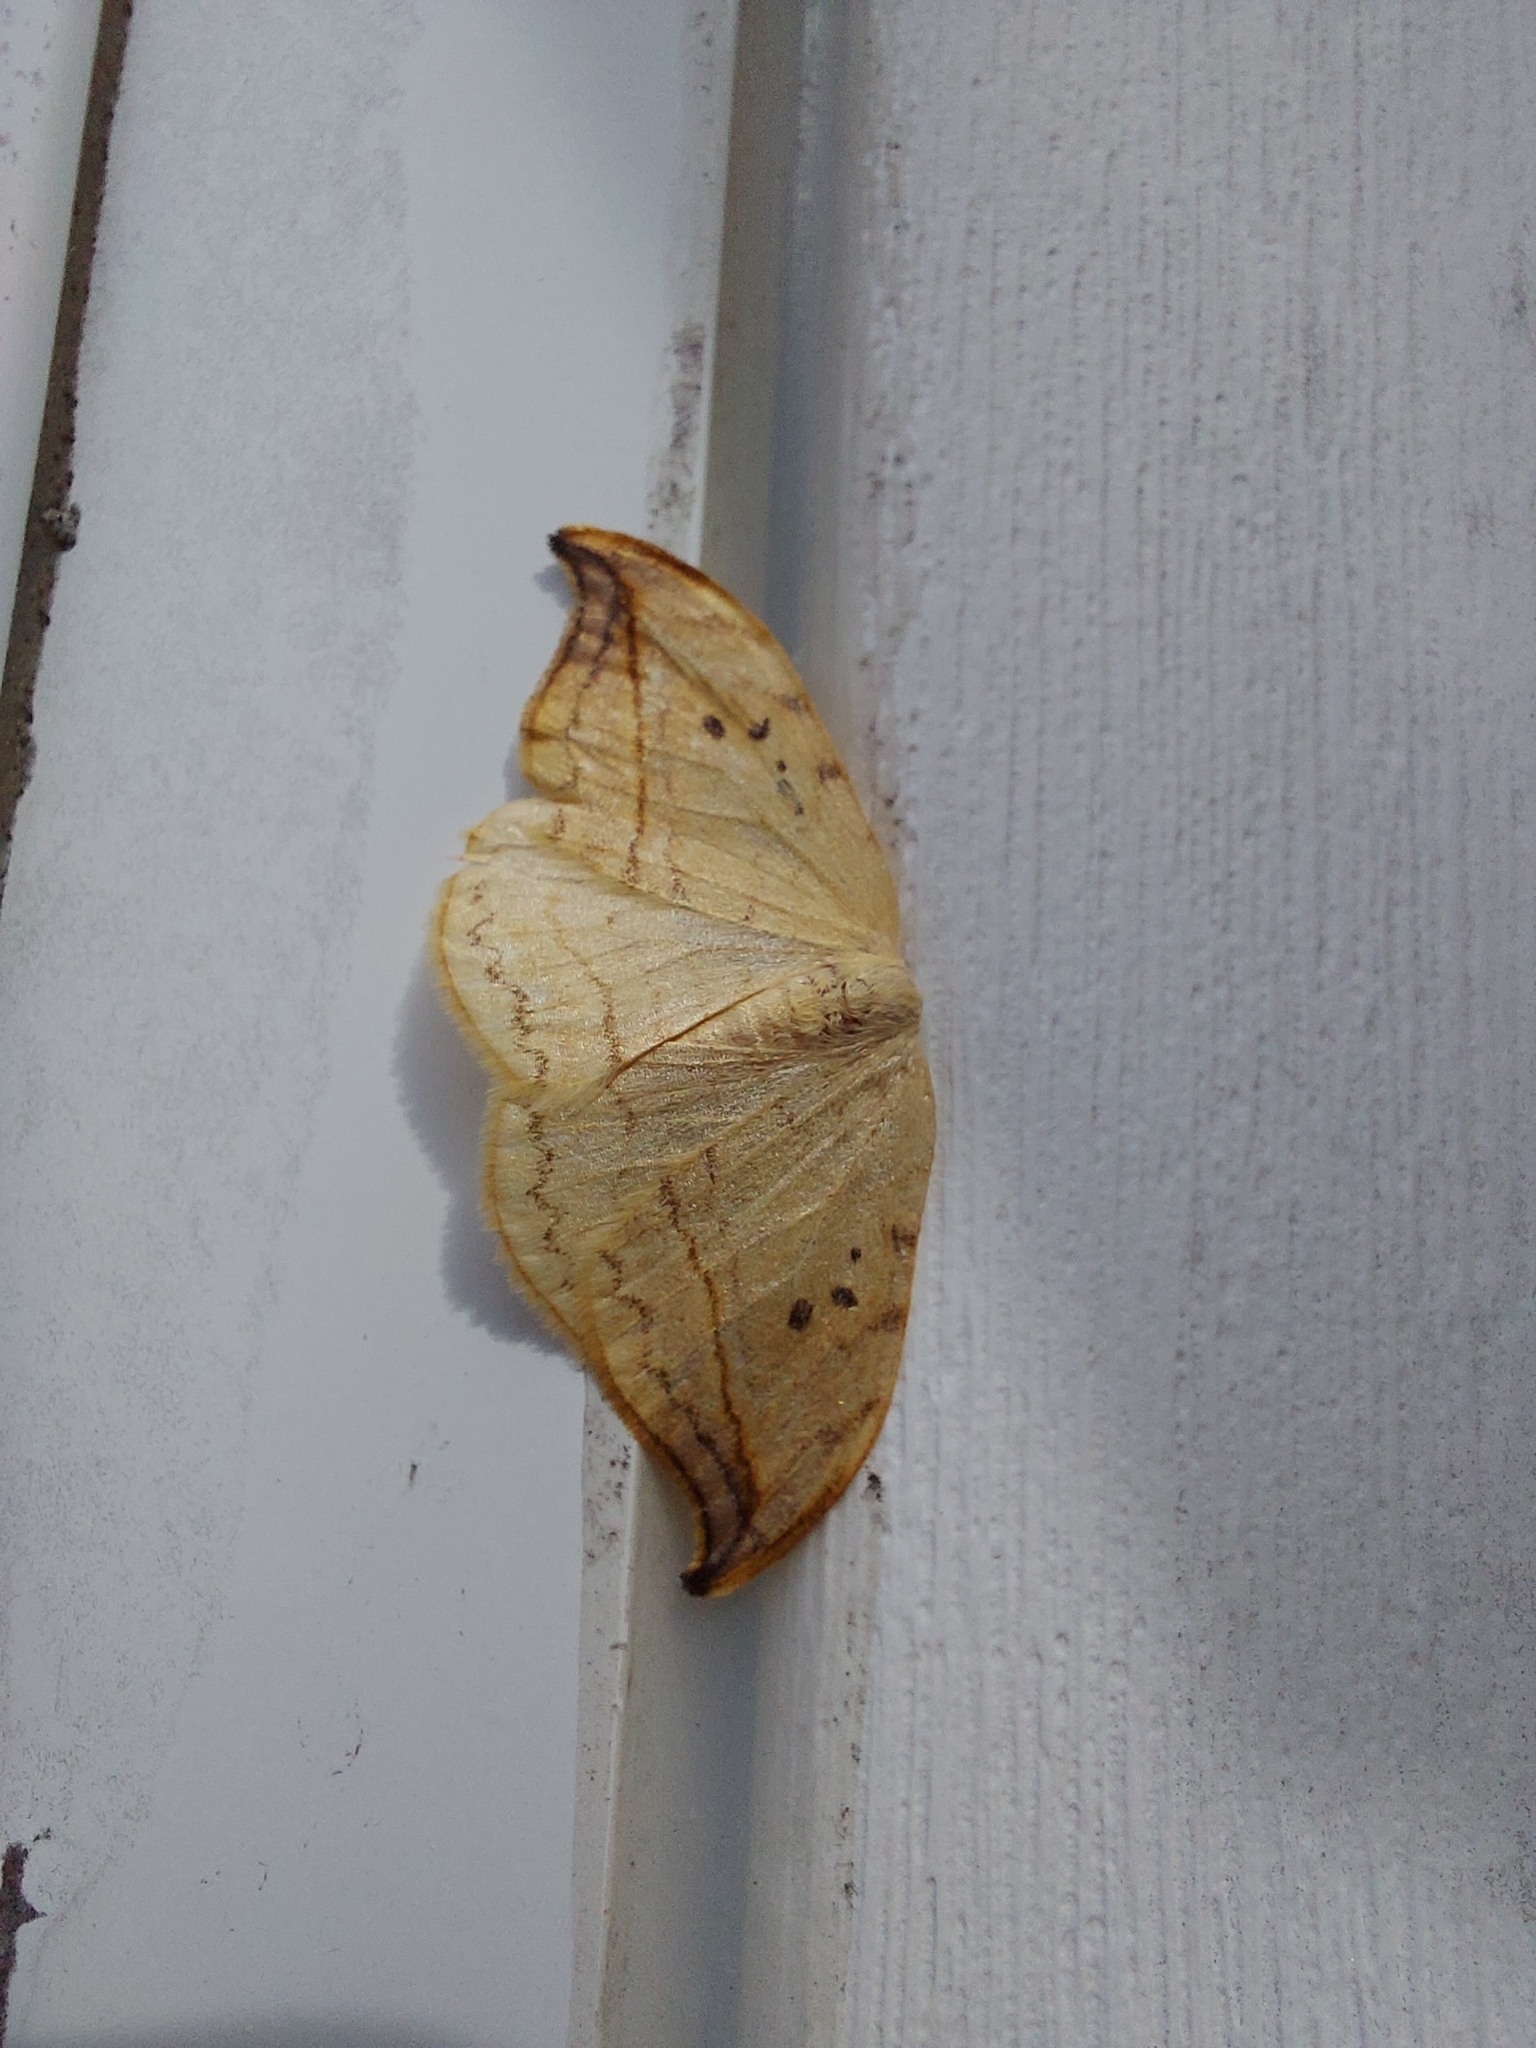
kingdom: Animalia
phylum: Arthropoda
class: Insecta
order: Lepidoptera
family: Drepanidae
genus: Drepana
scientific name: Drepana arcuata
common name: Arched hooktip moth
